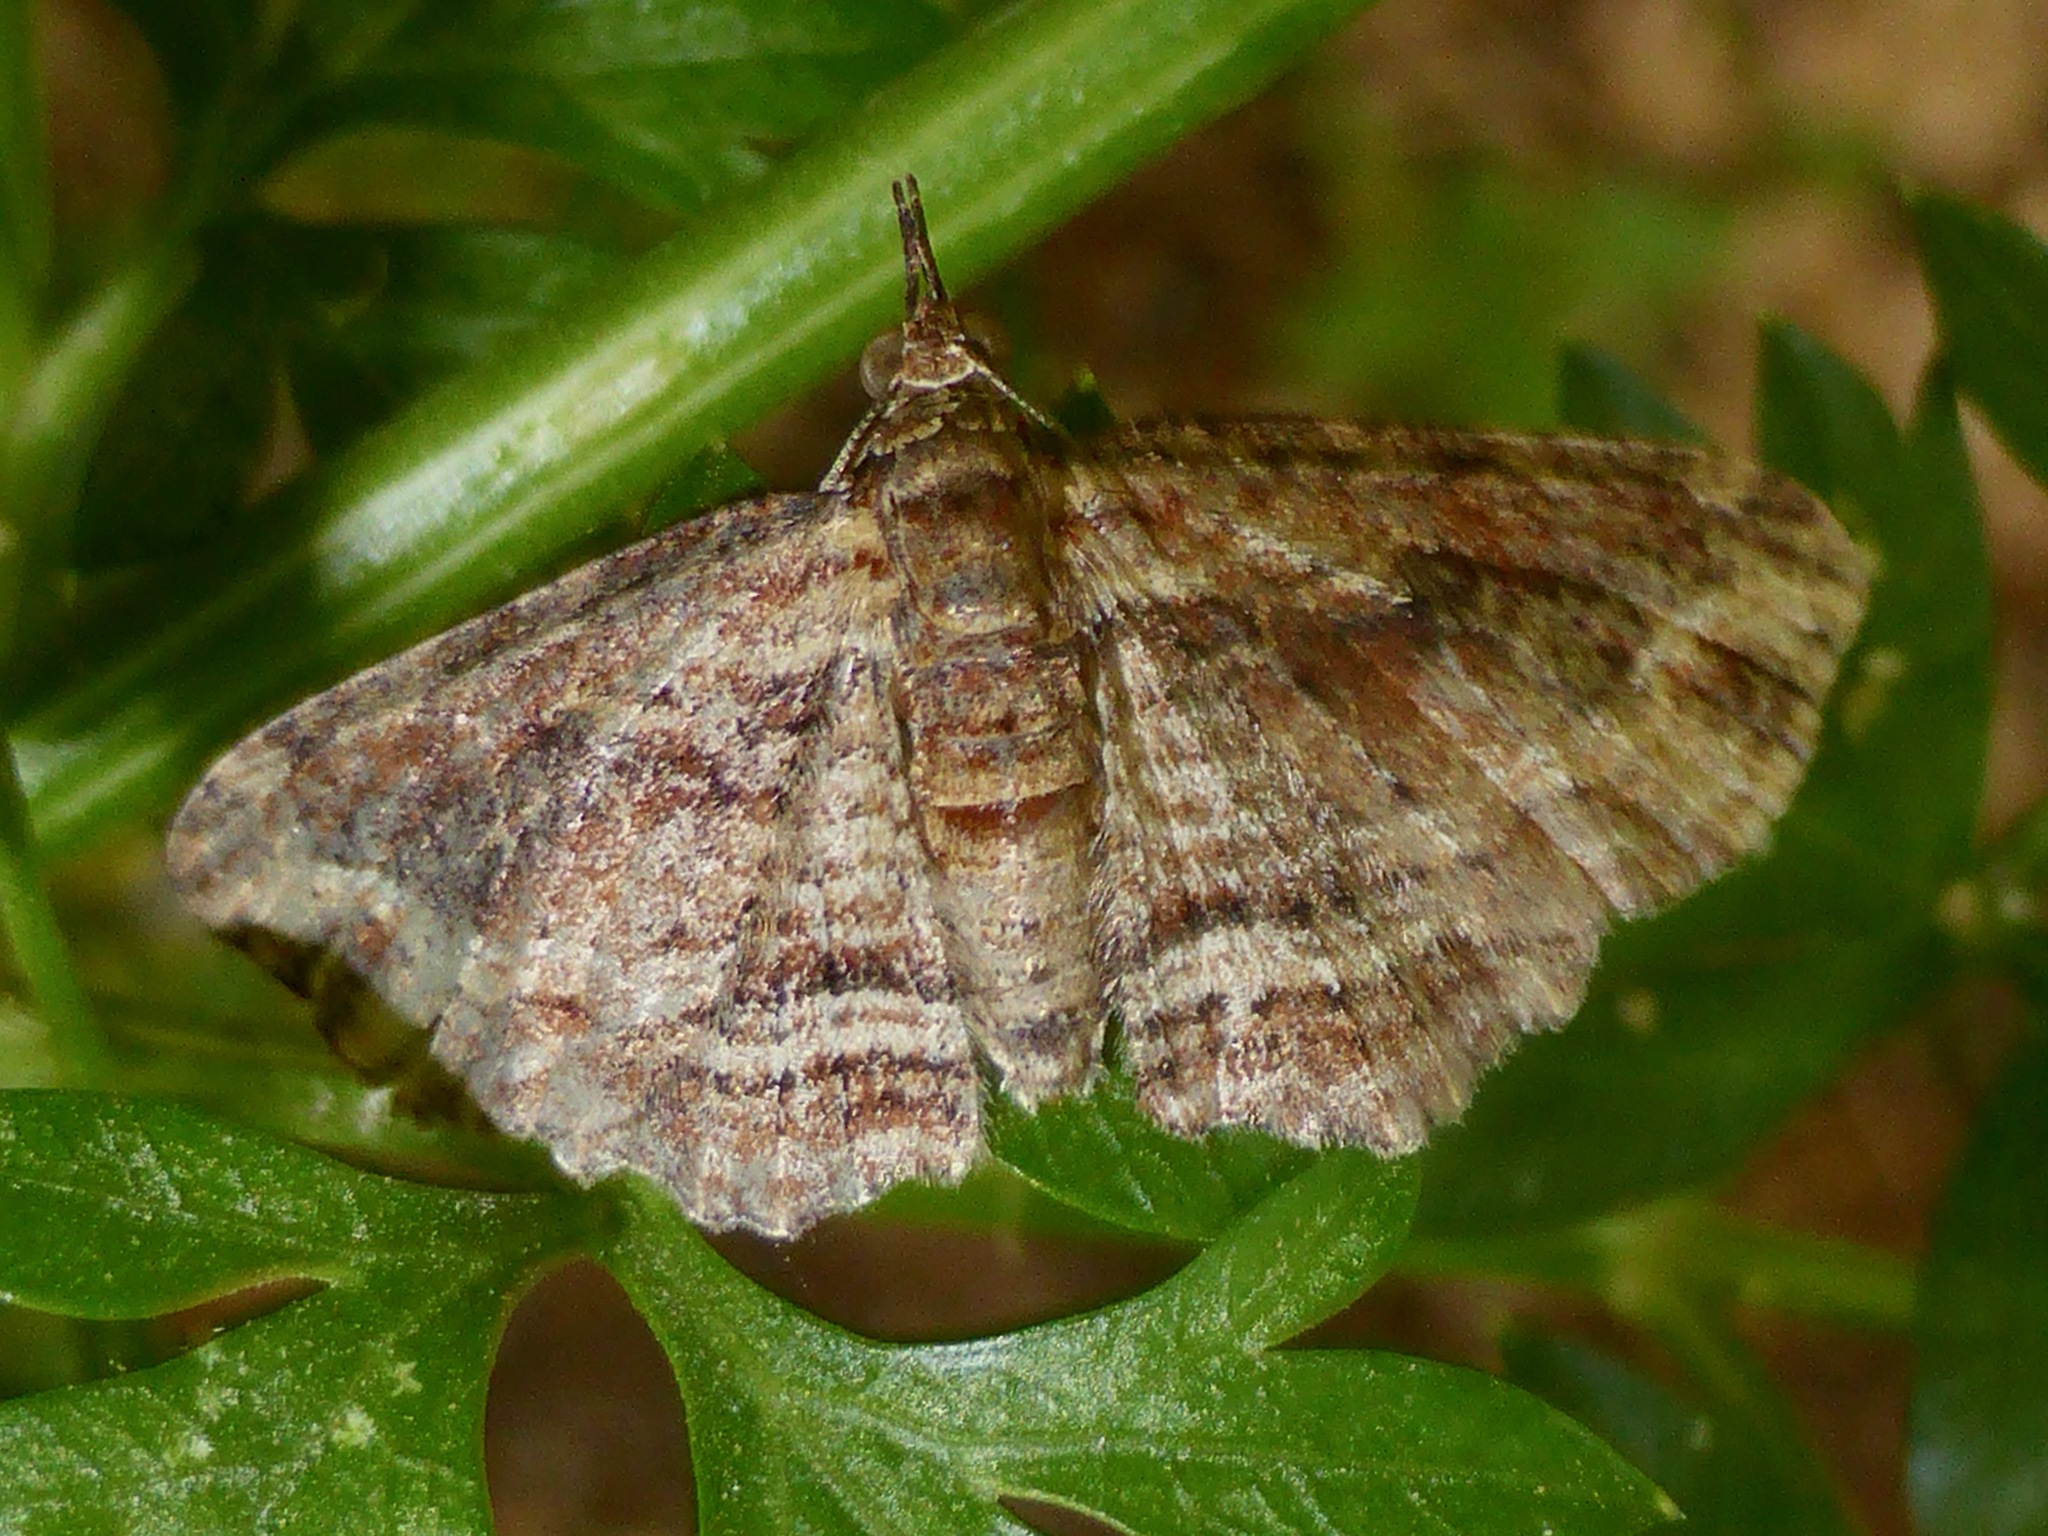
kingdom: Animalia
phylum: Arthropoda
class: Insecta
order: Lepidoptera
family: Geometridae
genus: Chloroclystis
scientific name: Chloroclystis filata
